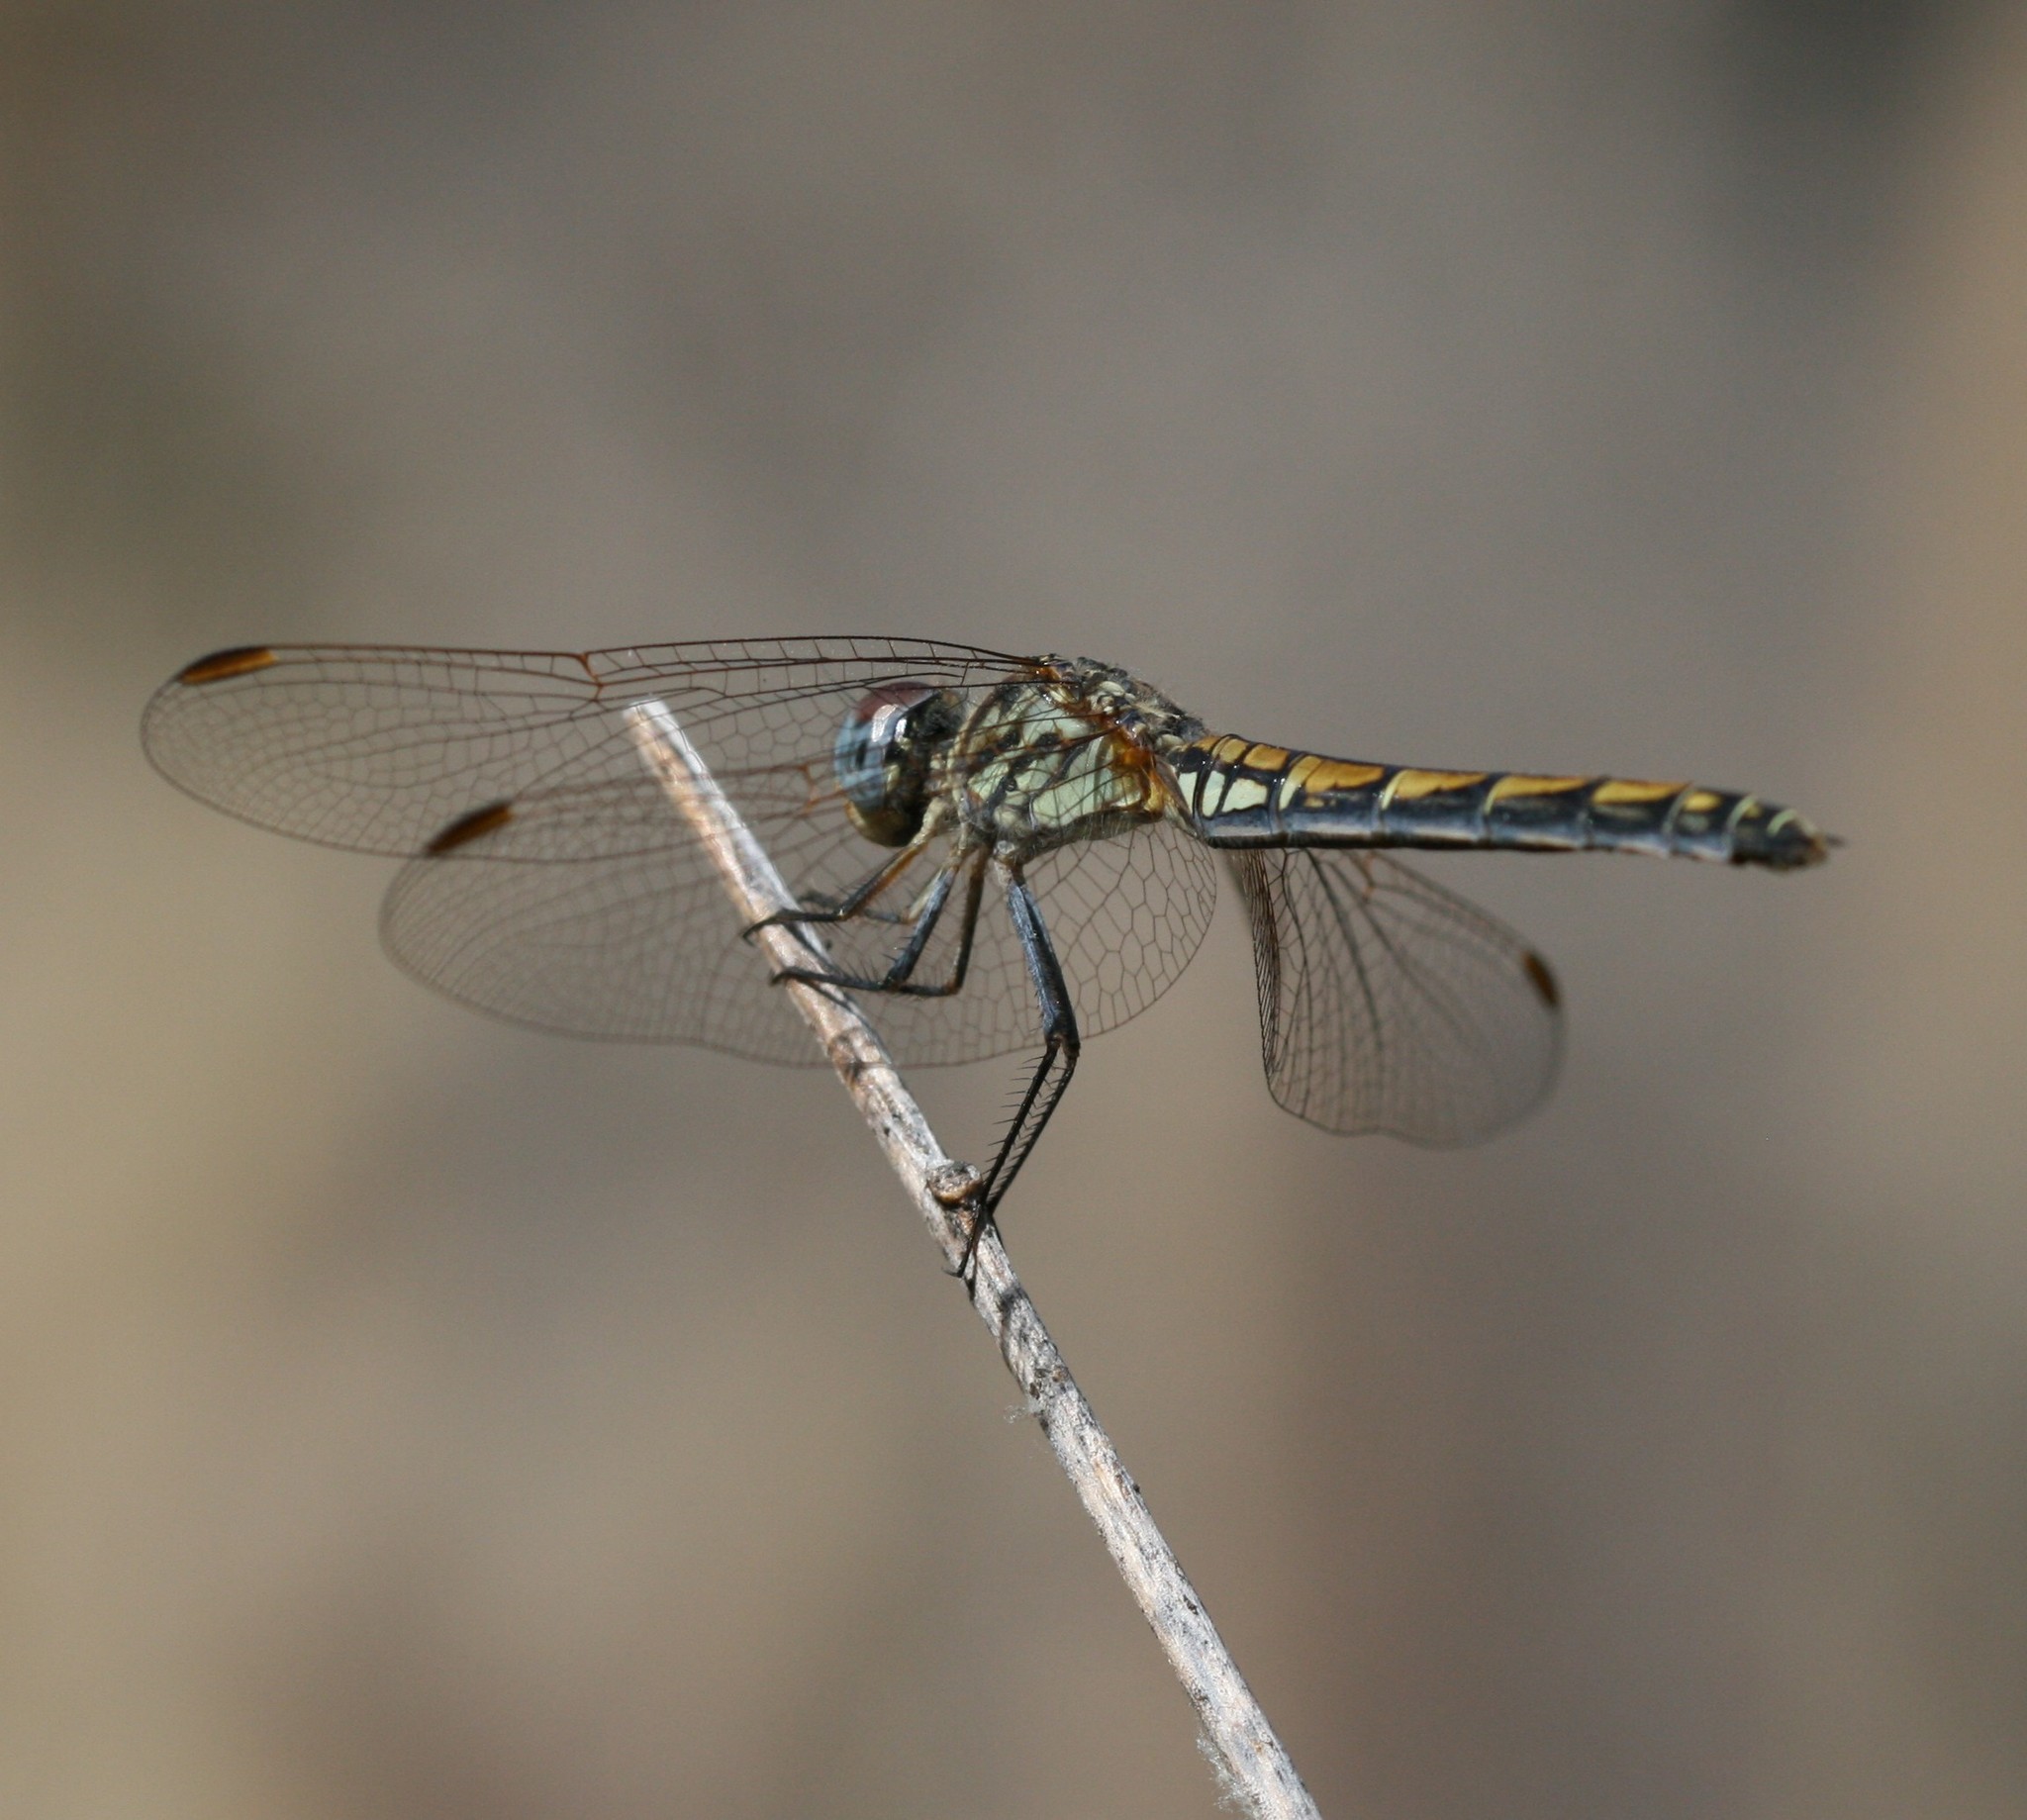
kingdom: Animalia
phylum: Arthropoda
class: Insecta
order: Odonata
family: Libellulidae
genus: Trithemis
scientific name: Trithemis arteriosa
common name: Red-veined dropwing
